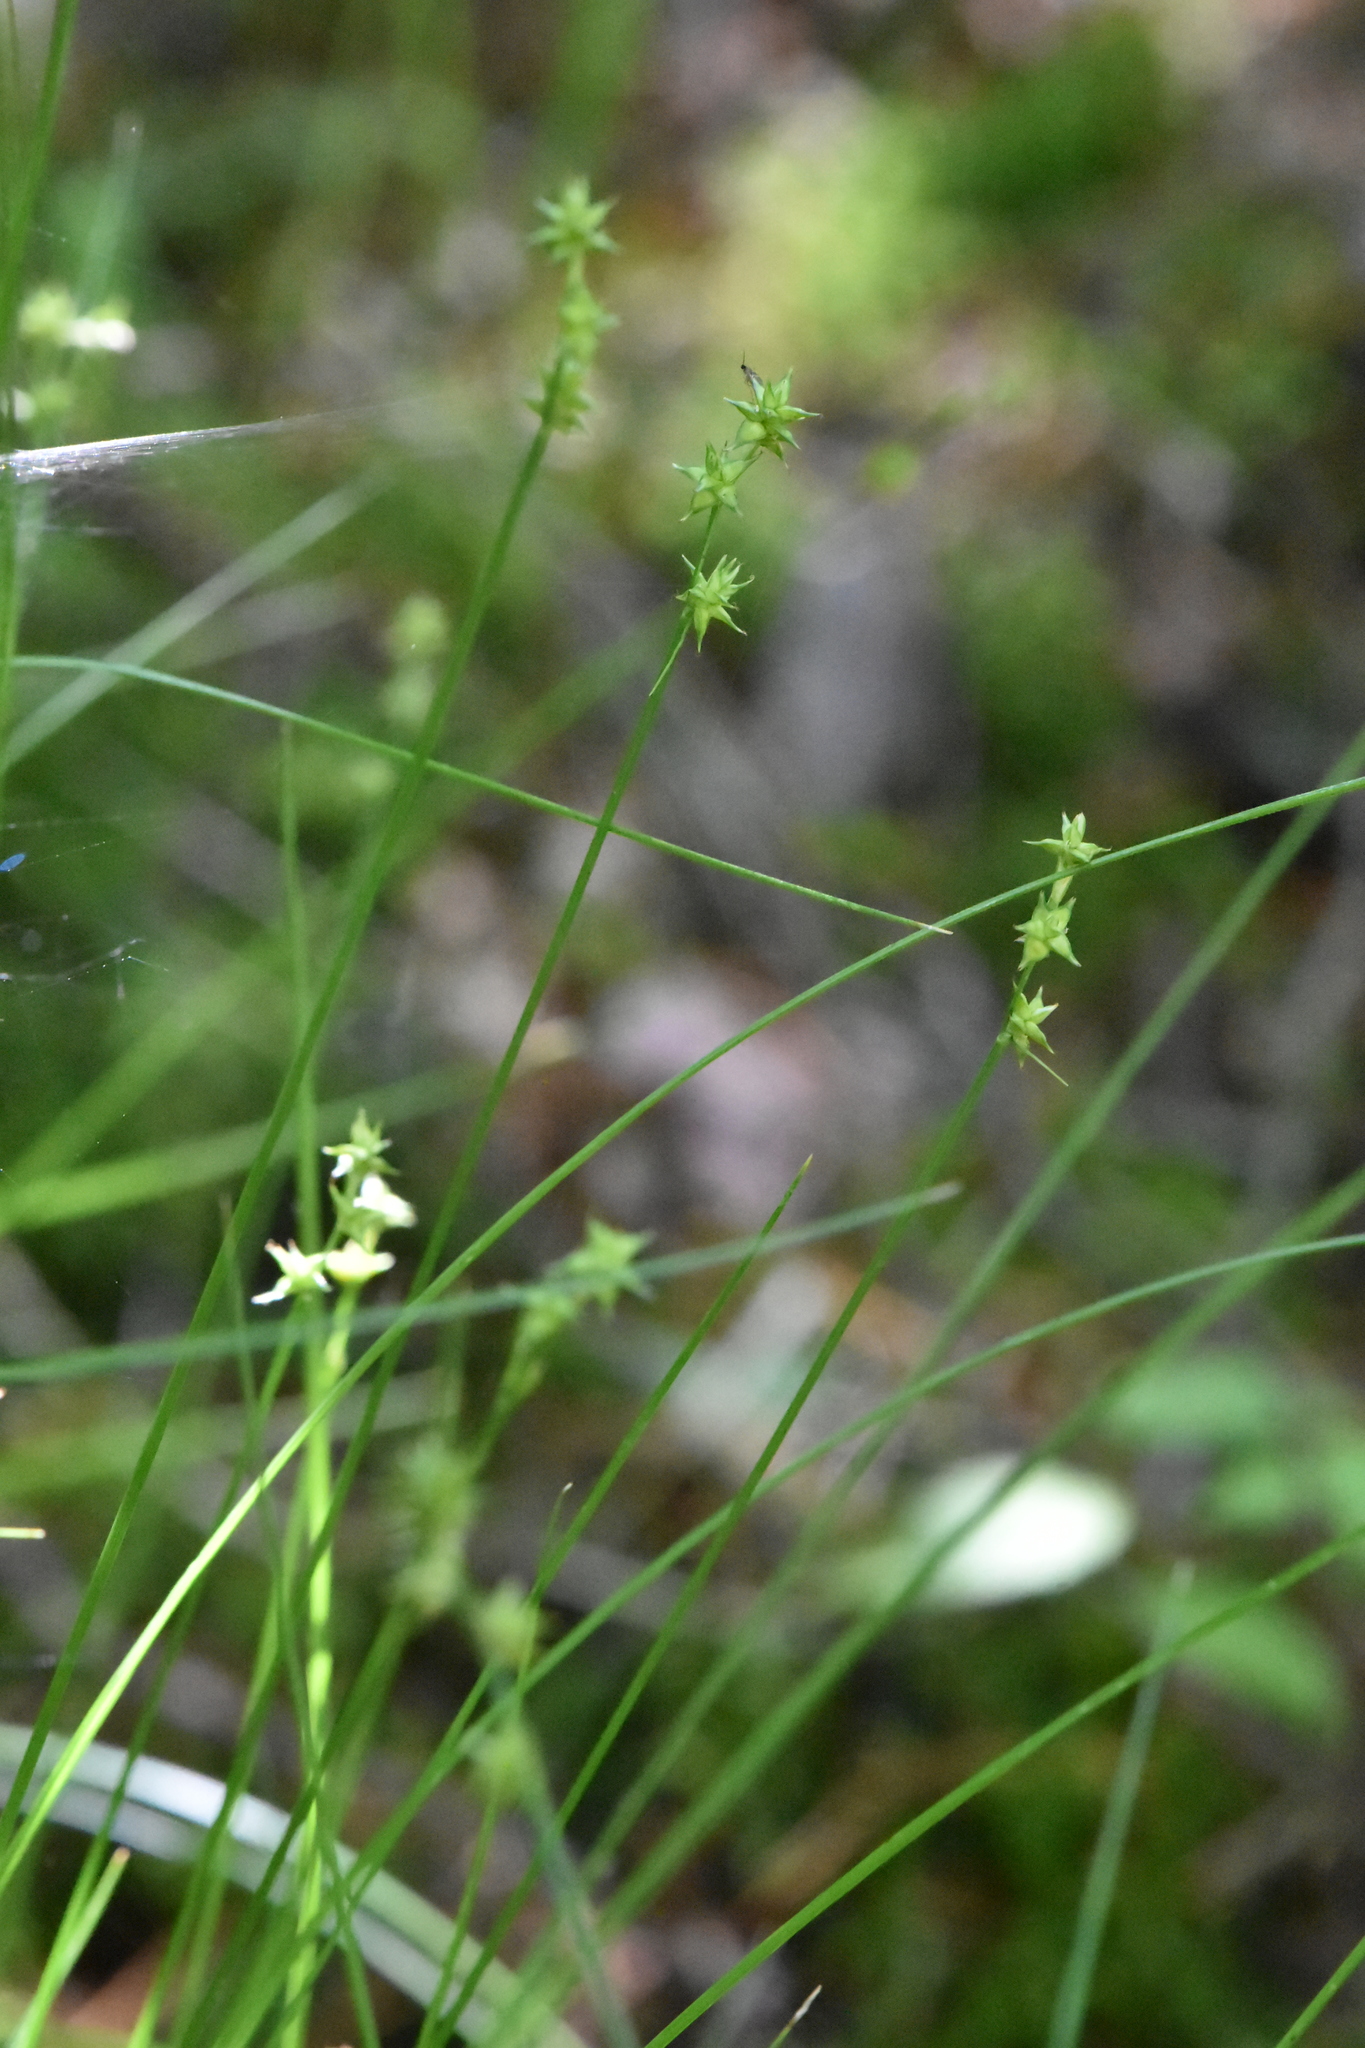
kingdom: Plantae
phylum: Tracheophyta
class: Liliopsida
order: Poales
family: Cyperaceae
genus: Carex
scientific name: Carex echinata
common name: Star sedge
